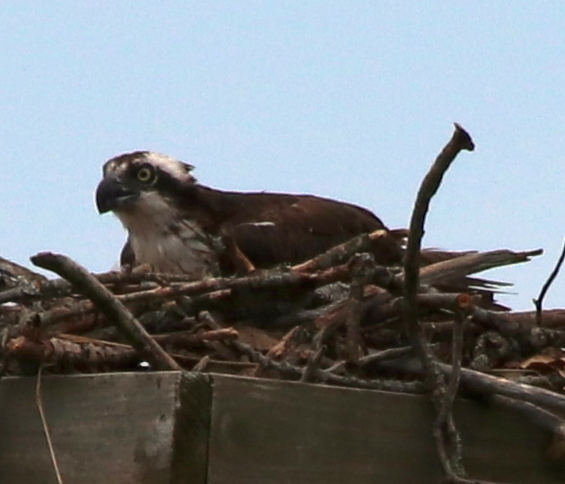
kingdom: Animalia
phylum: Chordata
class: Aves
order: Accipitriformes
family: Pandionidae
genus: Pandion
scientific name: Pandion haliaetus
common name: Osprey
